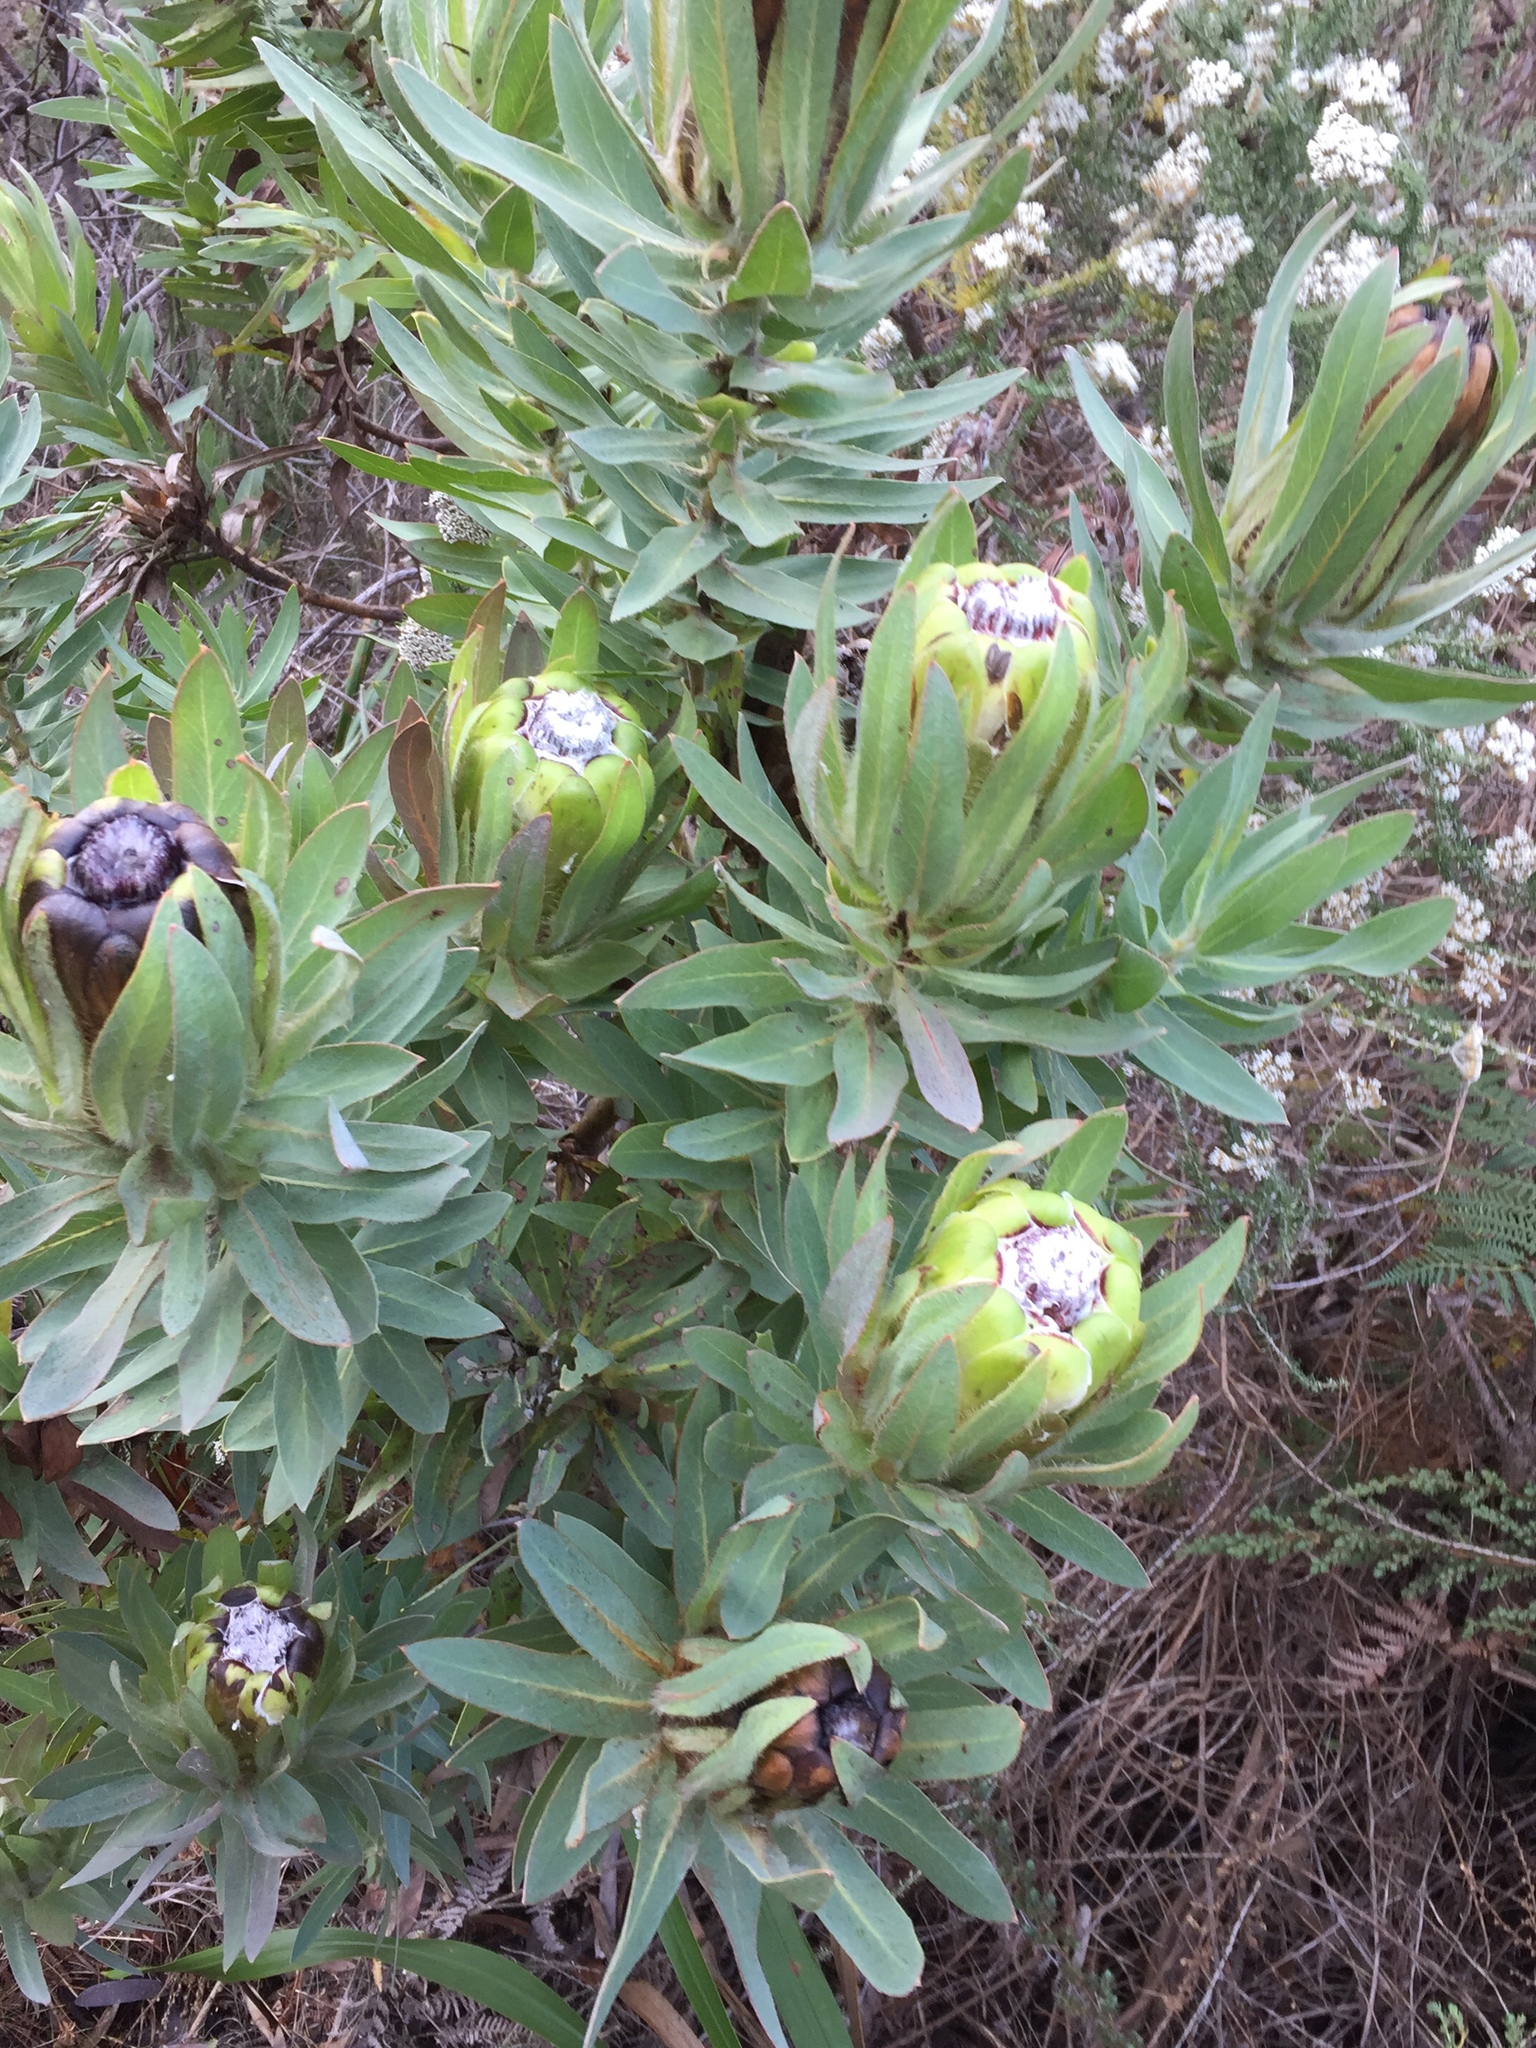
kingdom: Plantae
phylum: Tracheophyta
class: Magnoliopsida
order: Proteales
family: Proteaceae
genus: Protea
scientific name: Protea coronata
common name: Green sugarbush
